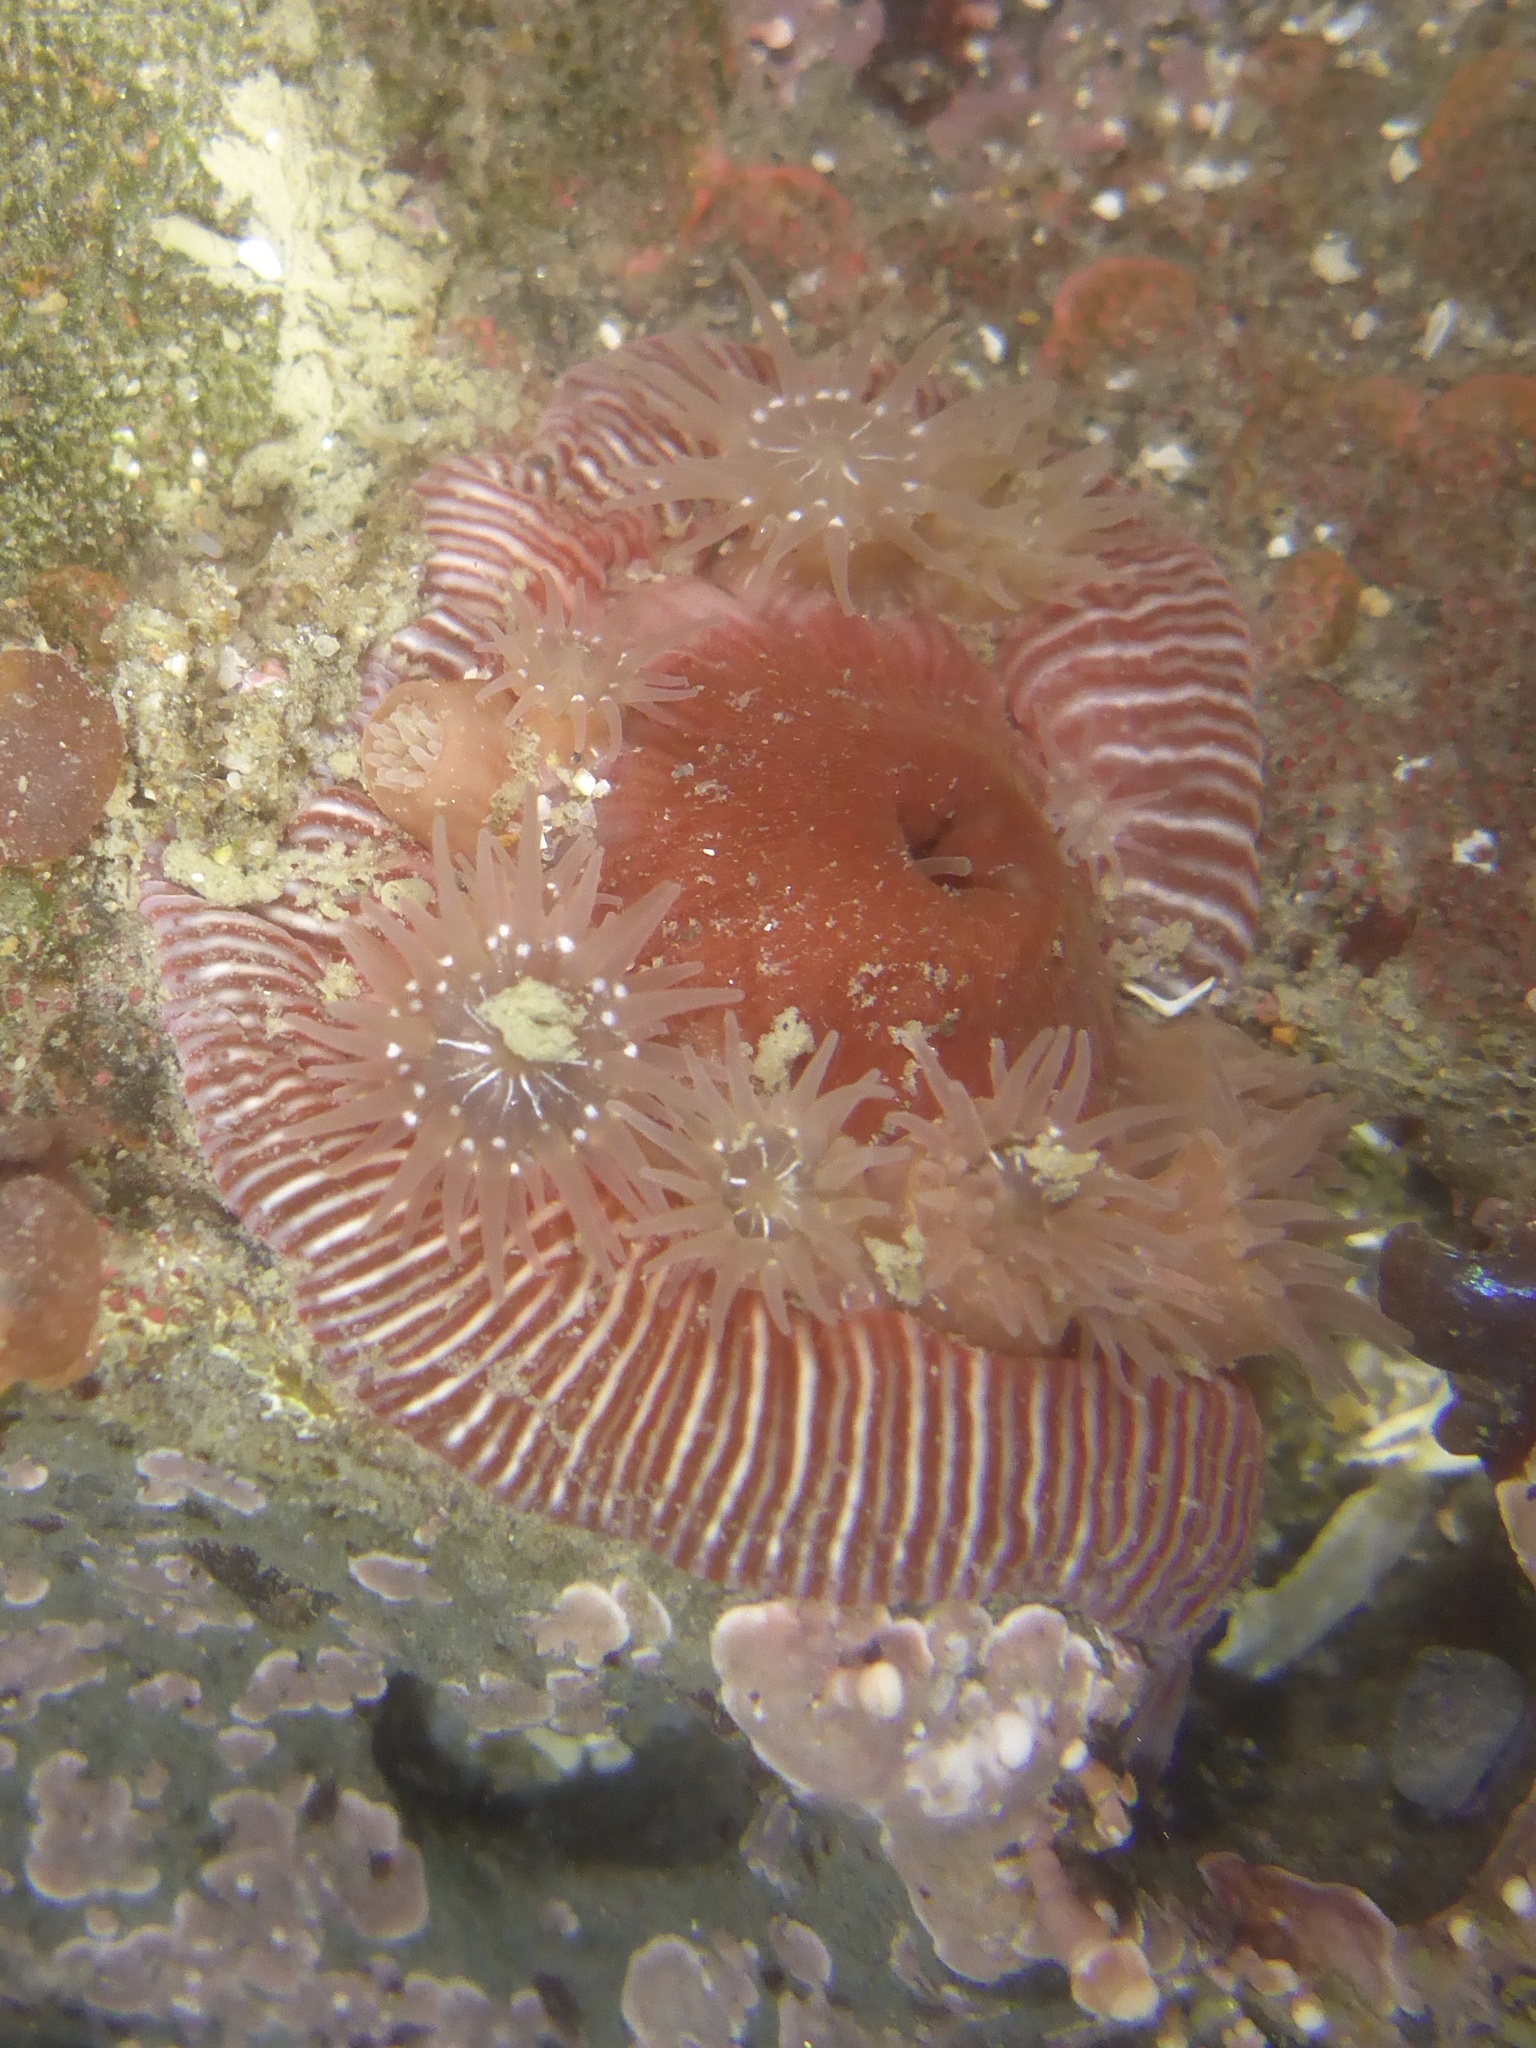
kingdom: Animalia
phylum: Cnidaria
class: Anthozoa
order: Actiniaria
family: Actiniidae
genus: Epiactis
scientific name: Epiactis prolifera
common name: Brooding anemone
